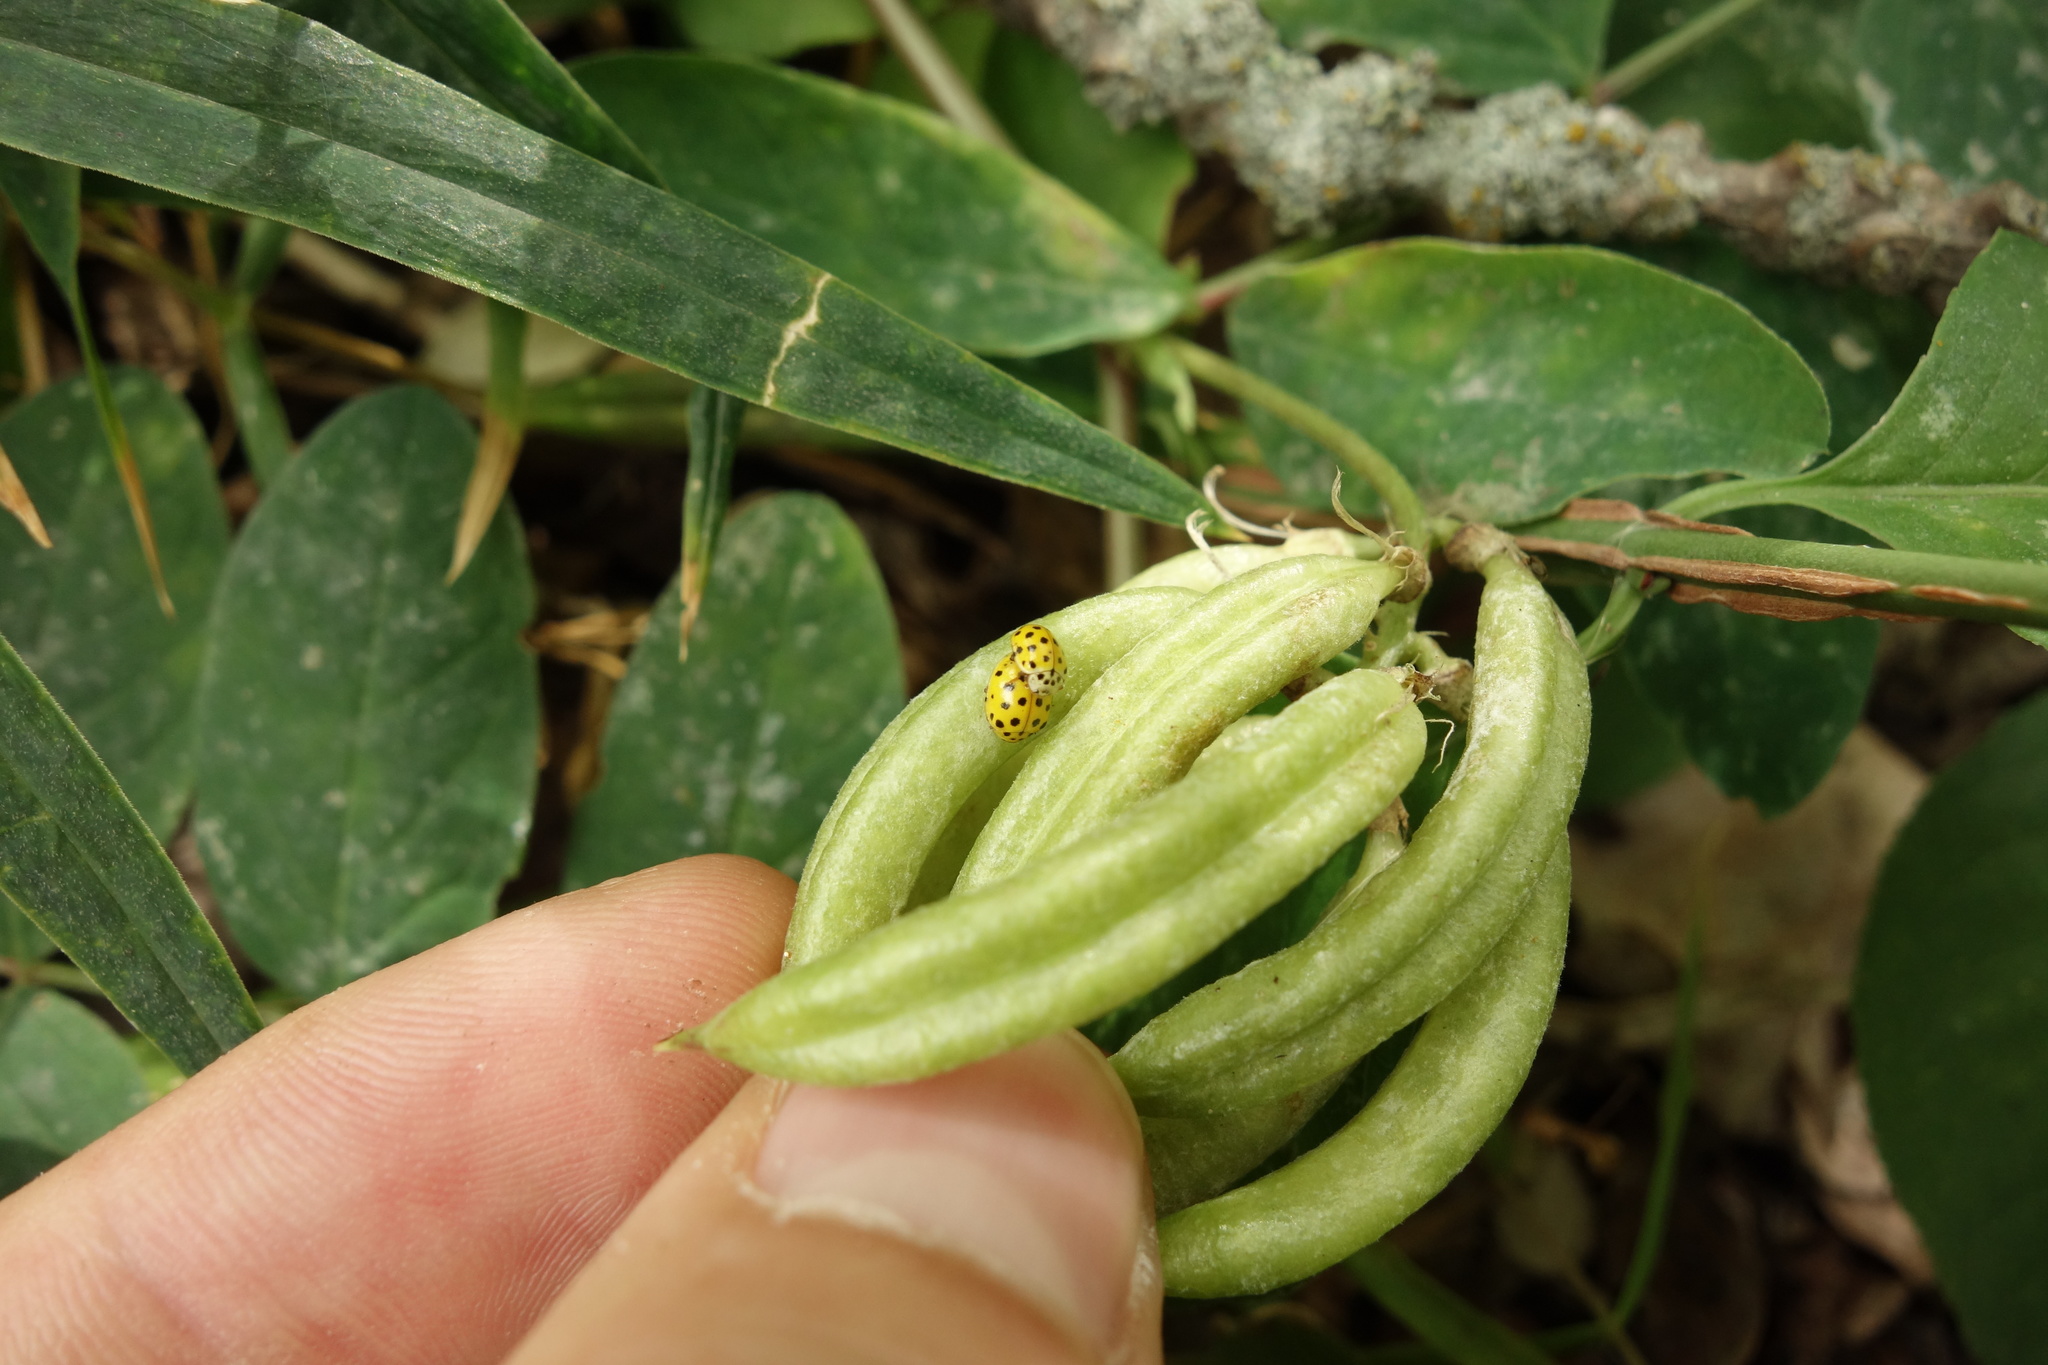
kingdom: Animalia
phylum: Arthropoda
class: Insecta
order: Coleoptera
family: Coccinellidae
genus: Psyllobora
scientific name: Psyllobora vigintiduopunctata
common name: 22-spot ladybird
